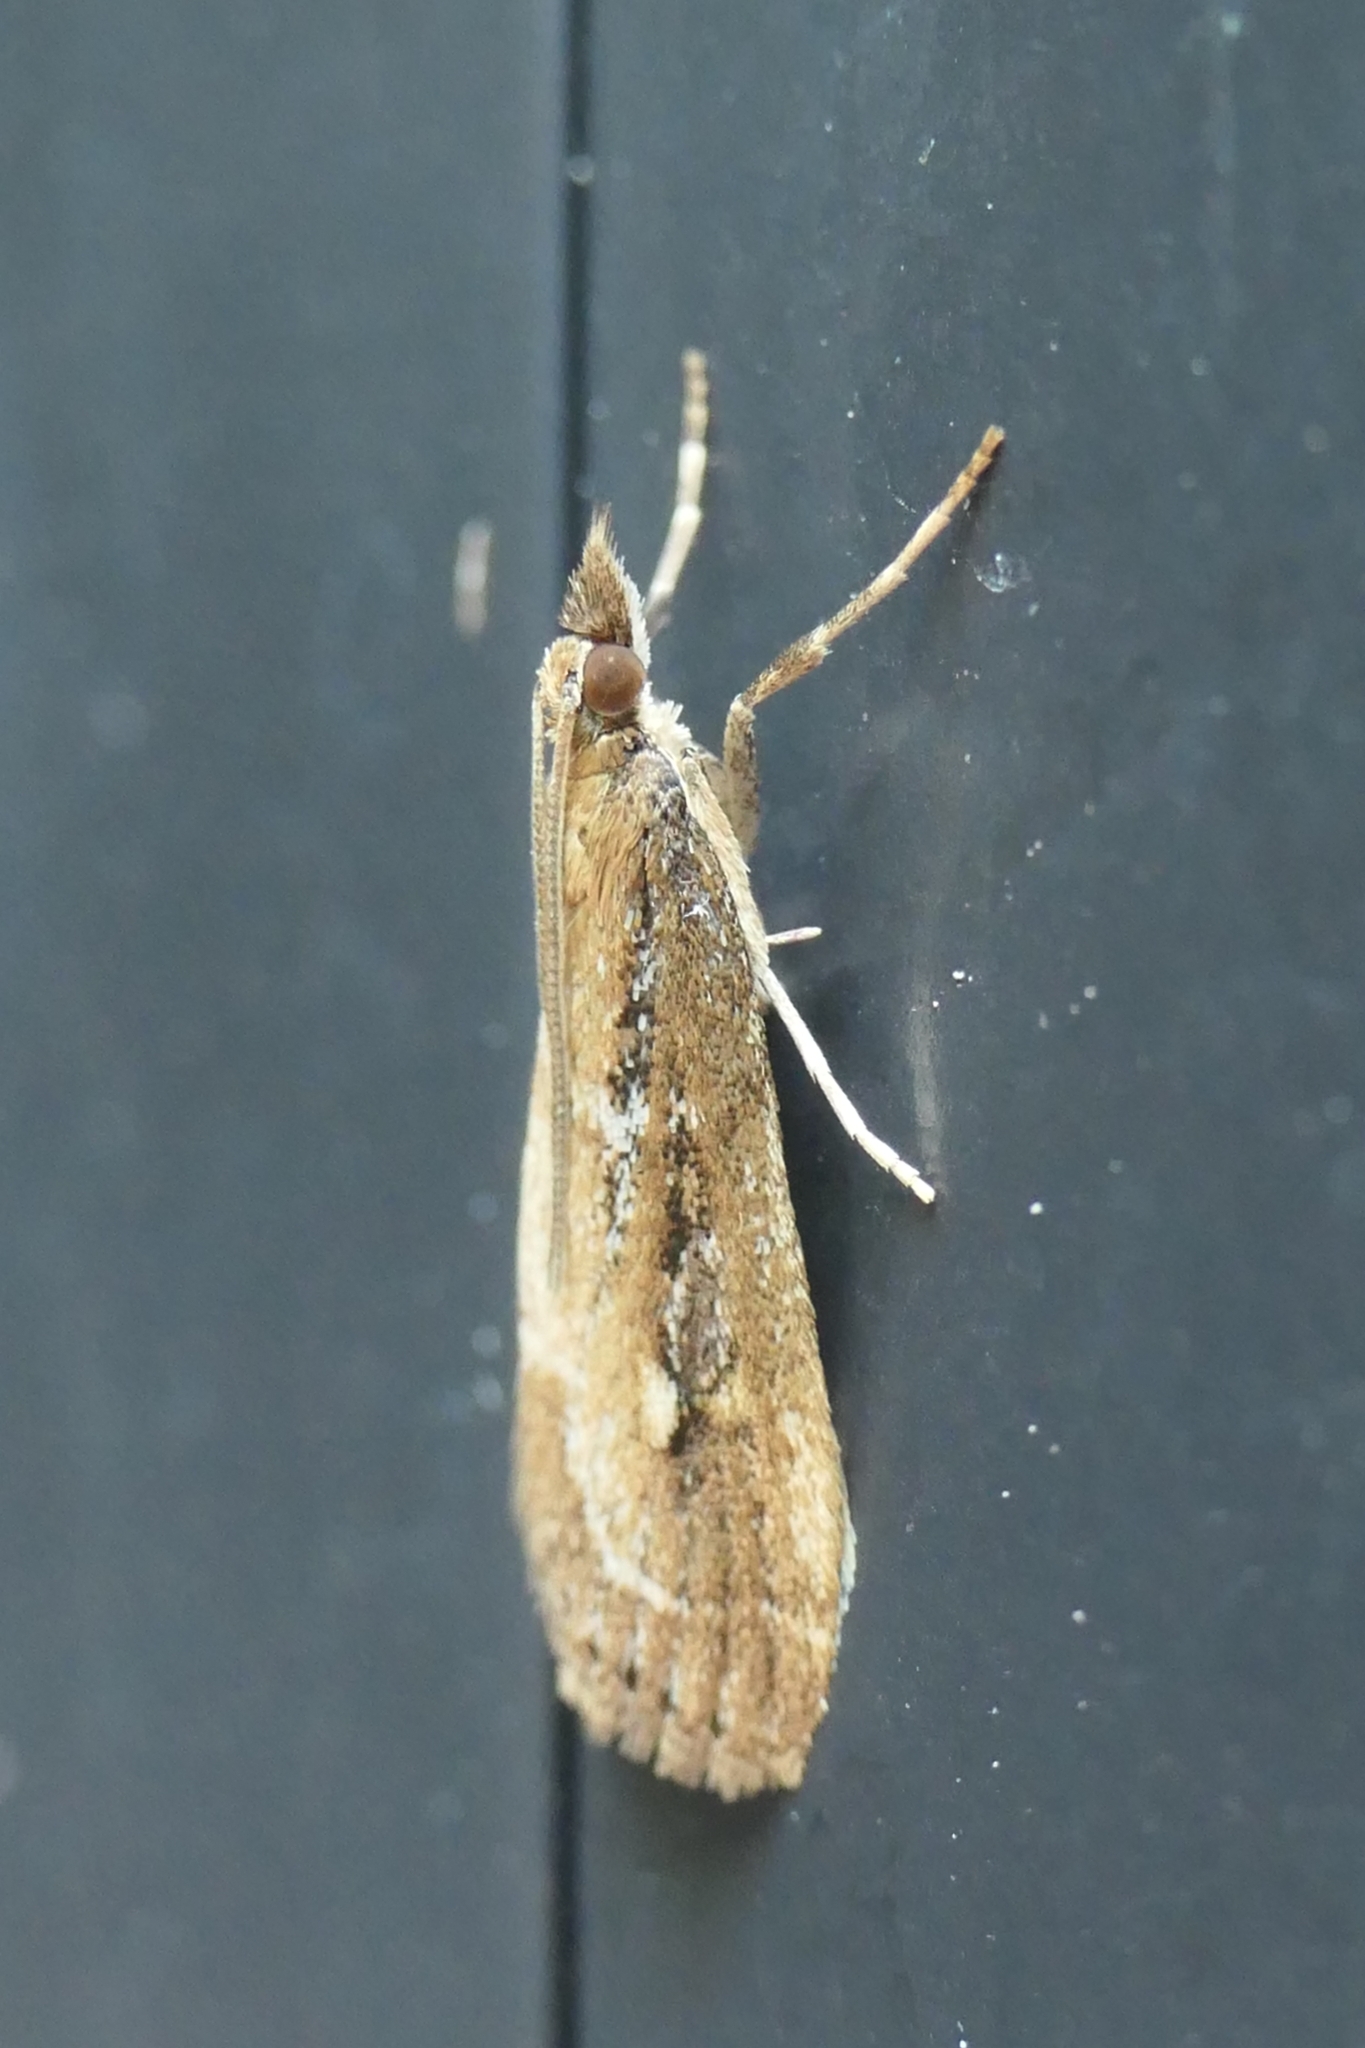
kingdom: Animalia
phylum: Arthropoda
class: Insecta
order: Lepidoptera
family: Crambidae
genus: Eudonia
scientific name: Eudonia octophora
